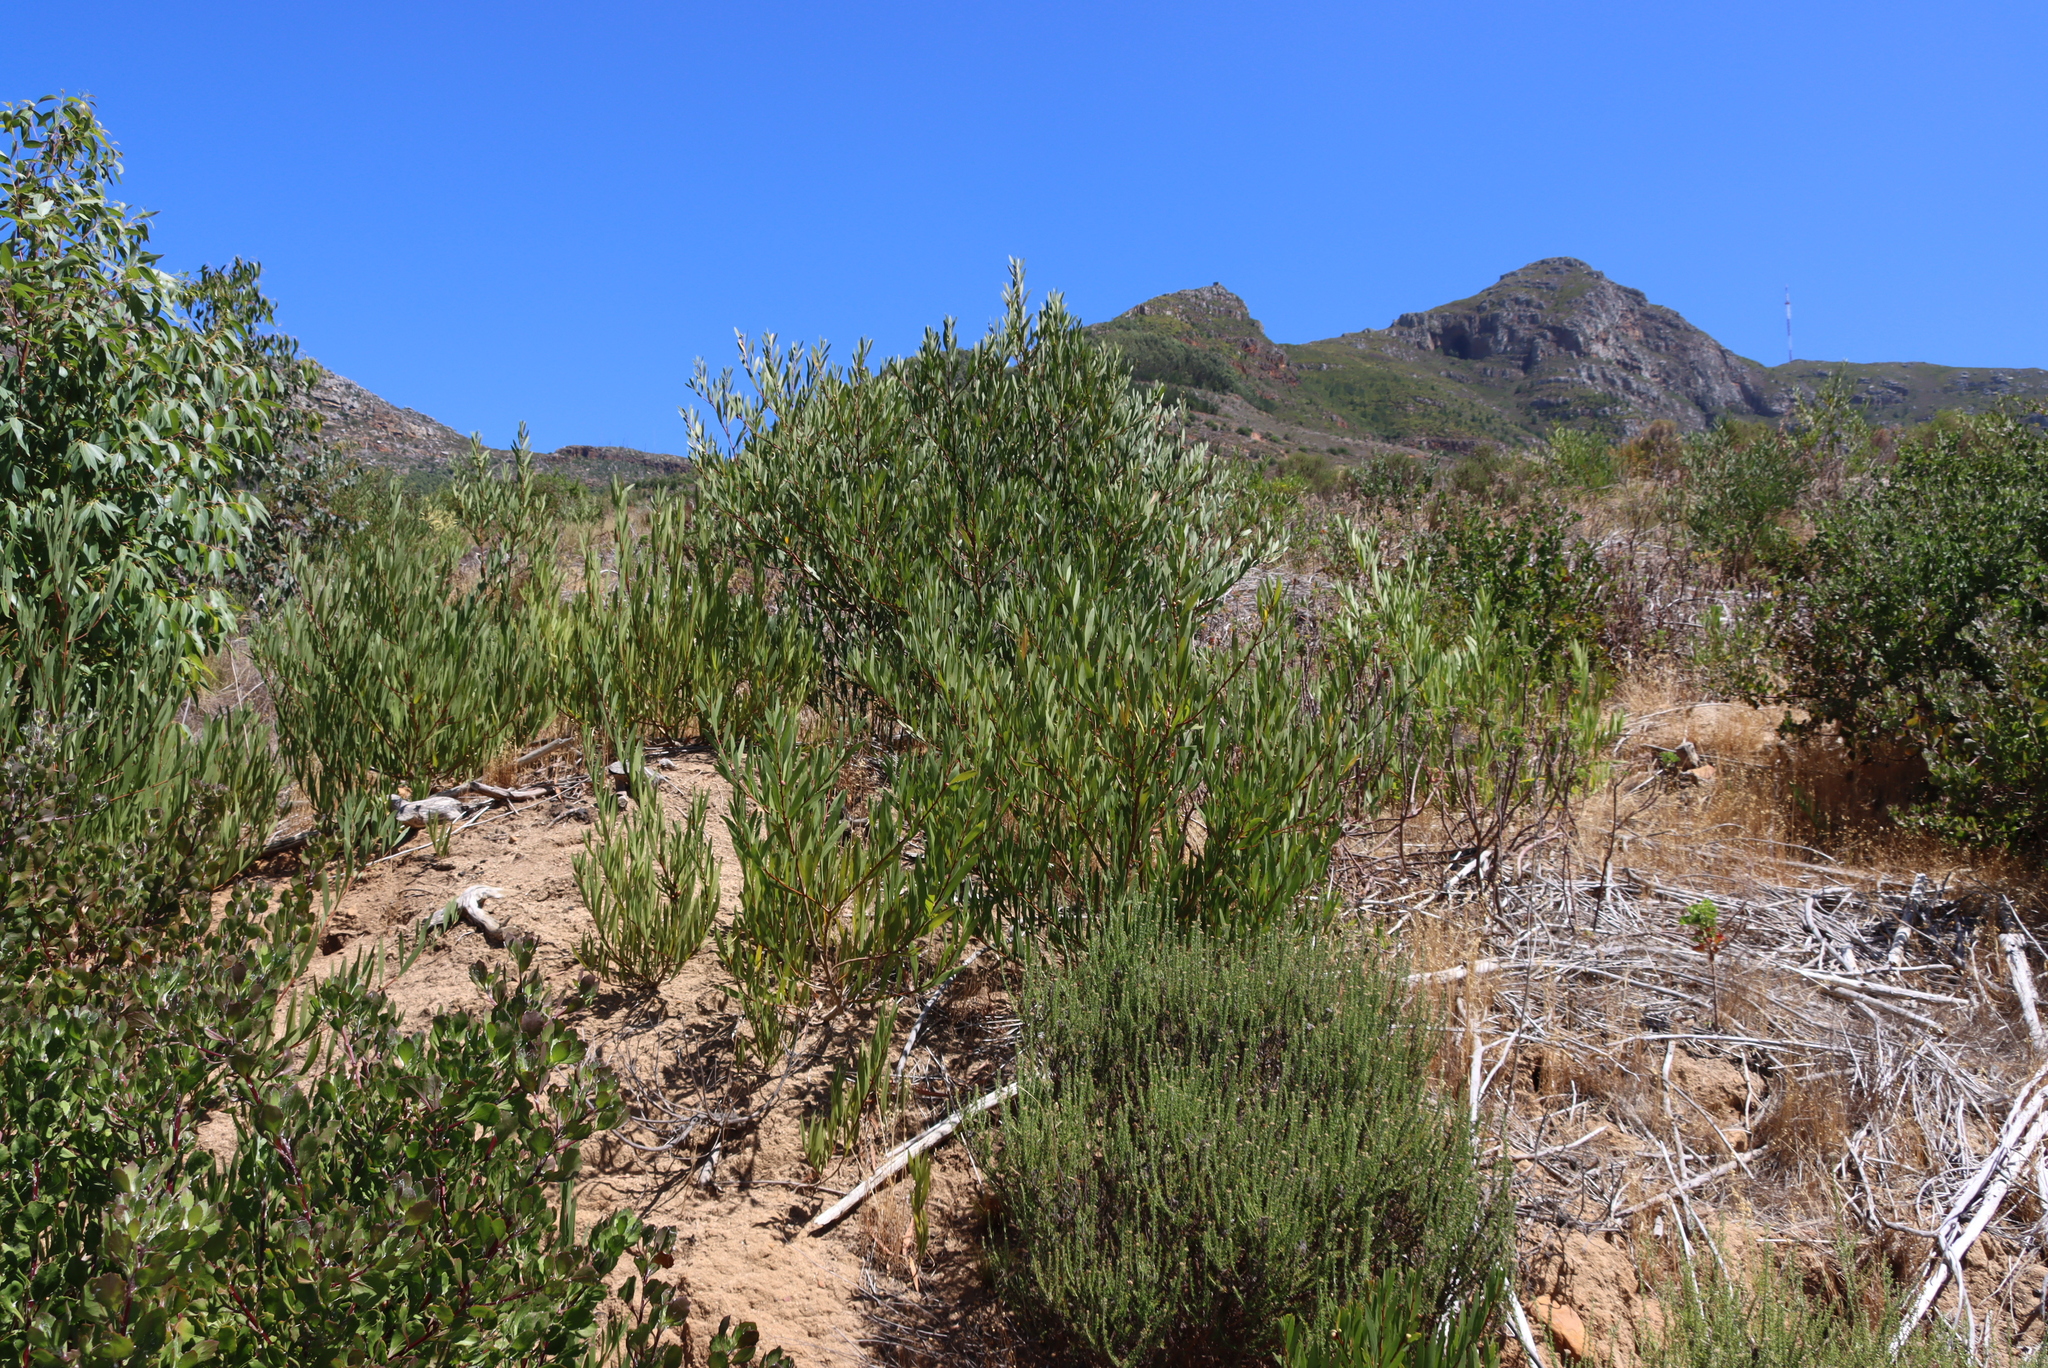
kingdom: Plantae
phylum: Tracheophyta
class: Magnoliopsida
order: Fabales
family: Fabaceae
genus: Acacia
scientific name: Acacia longifolia
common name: Sydney golden wattle
